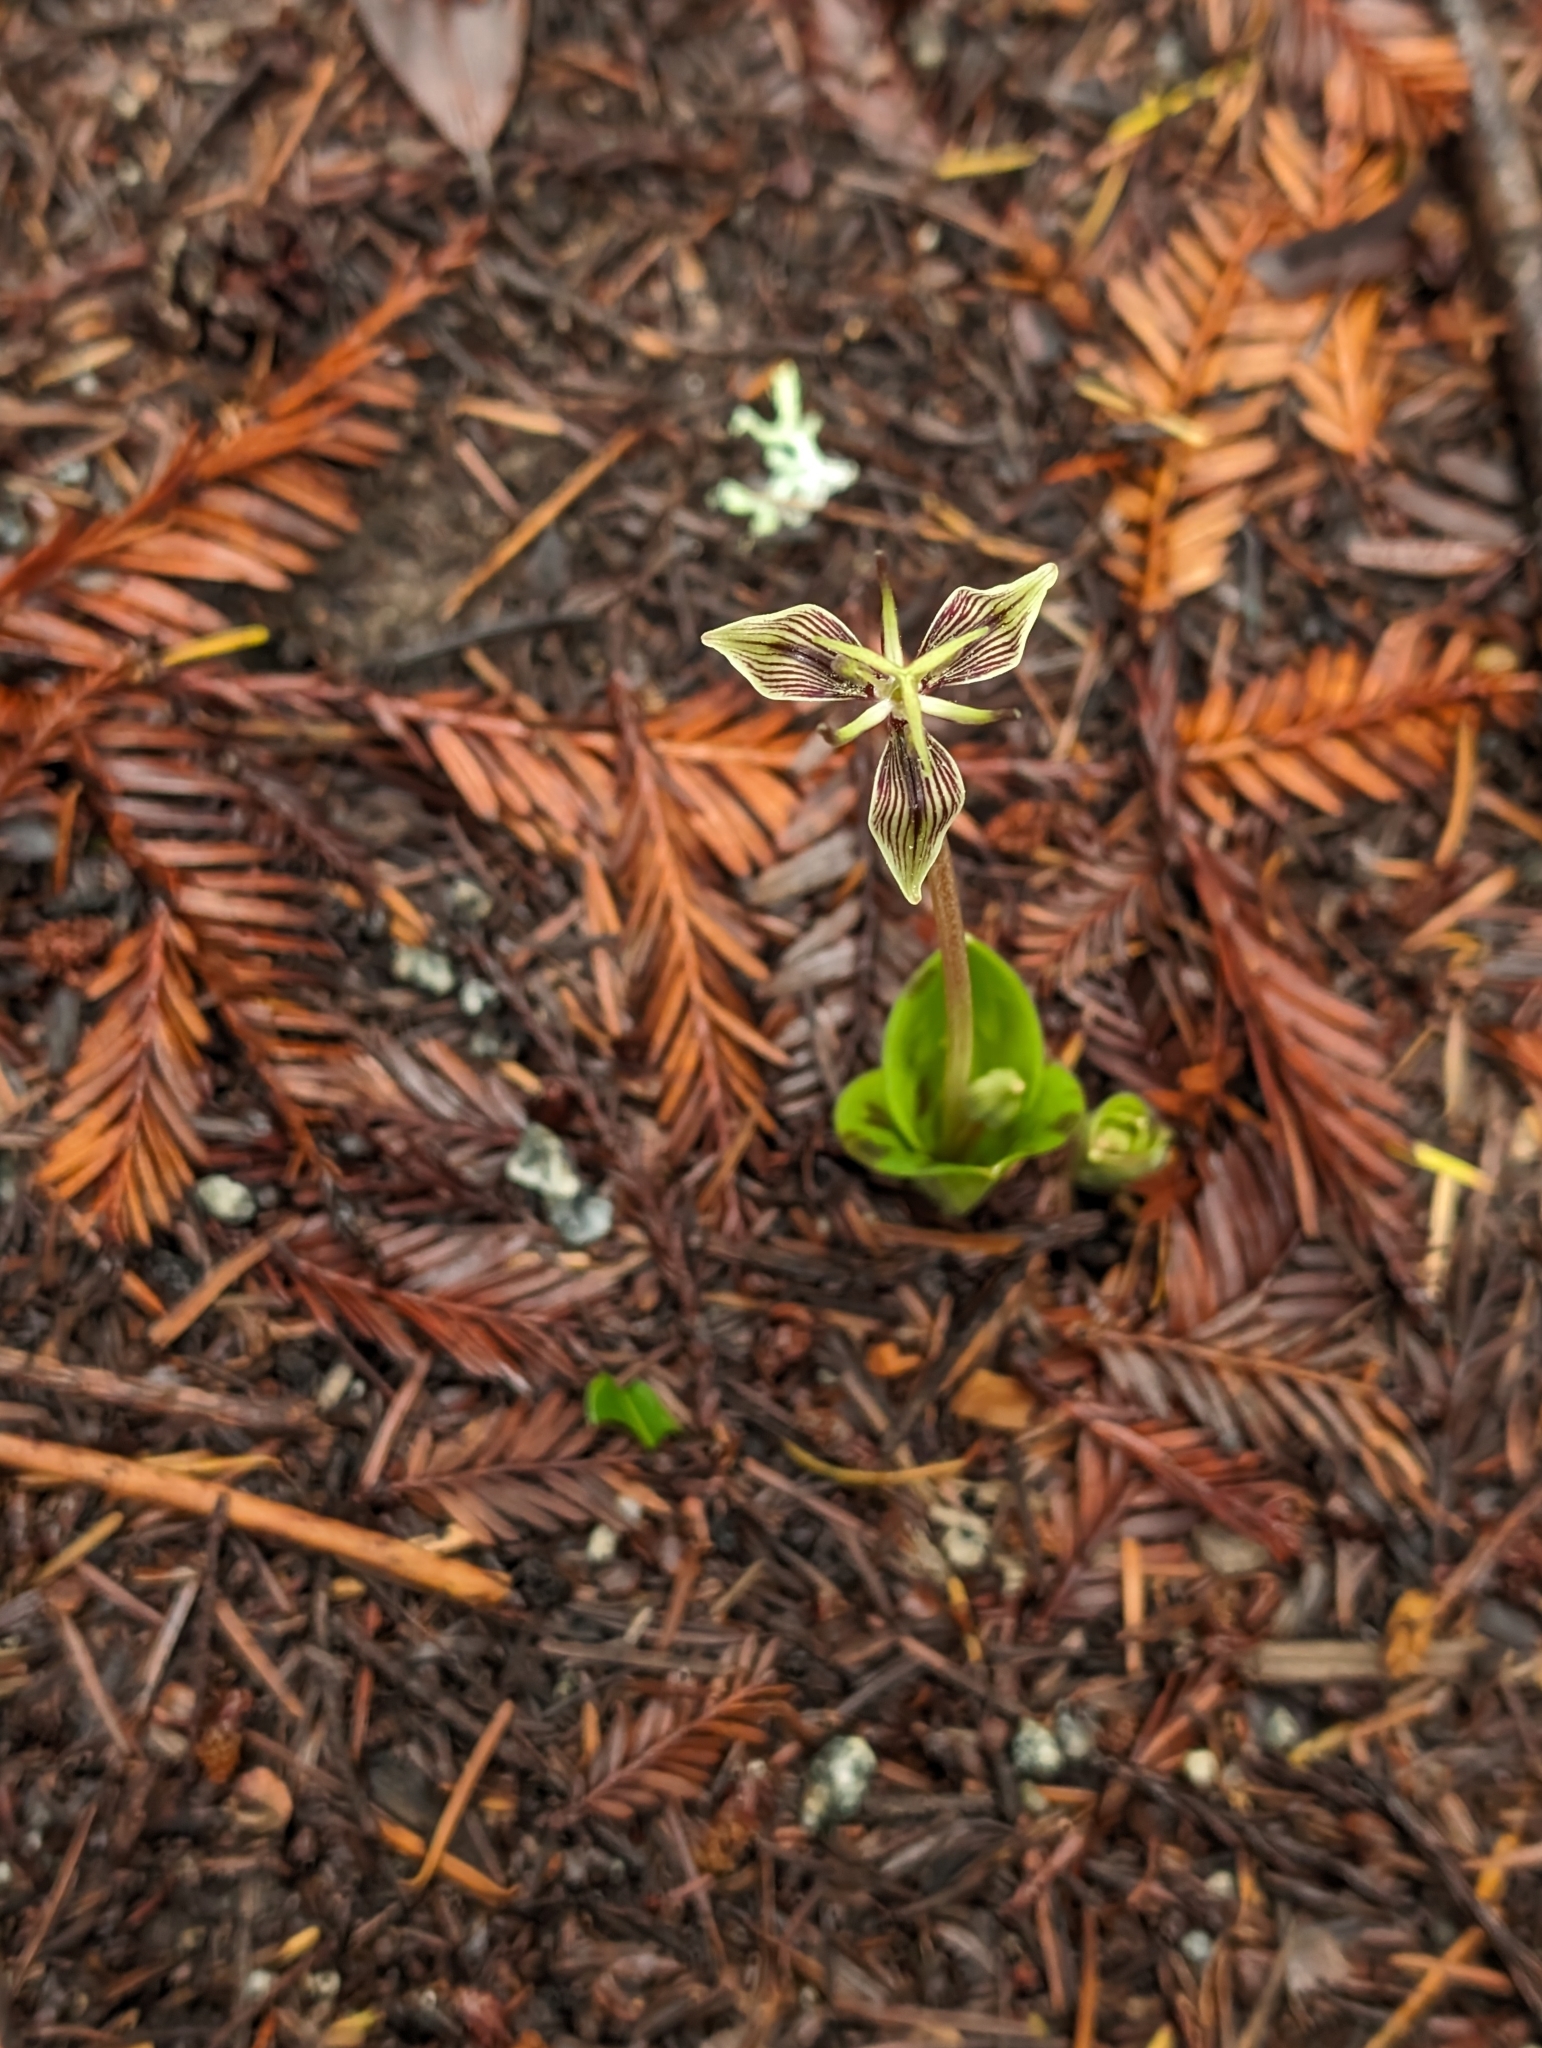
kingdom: Plantae
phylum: Tracheophyta
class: Liliopsida
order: Liliales
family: Liliaceae
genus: Scoliopus
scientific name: Scoliopus bigelovii
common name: Foetid adder's-tongue
